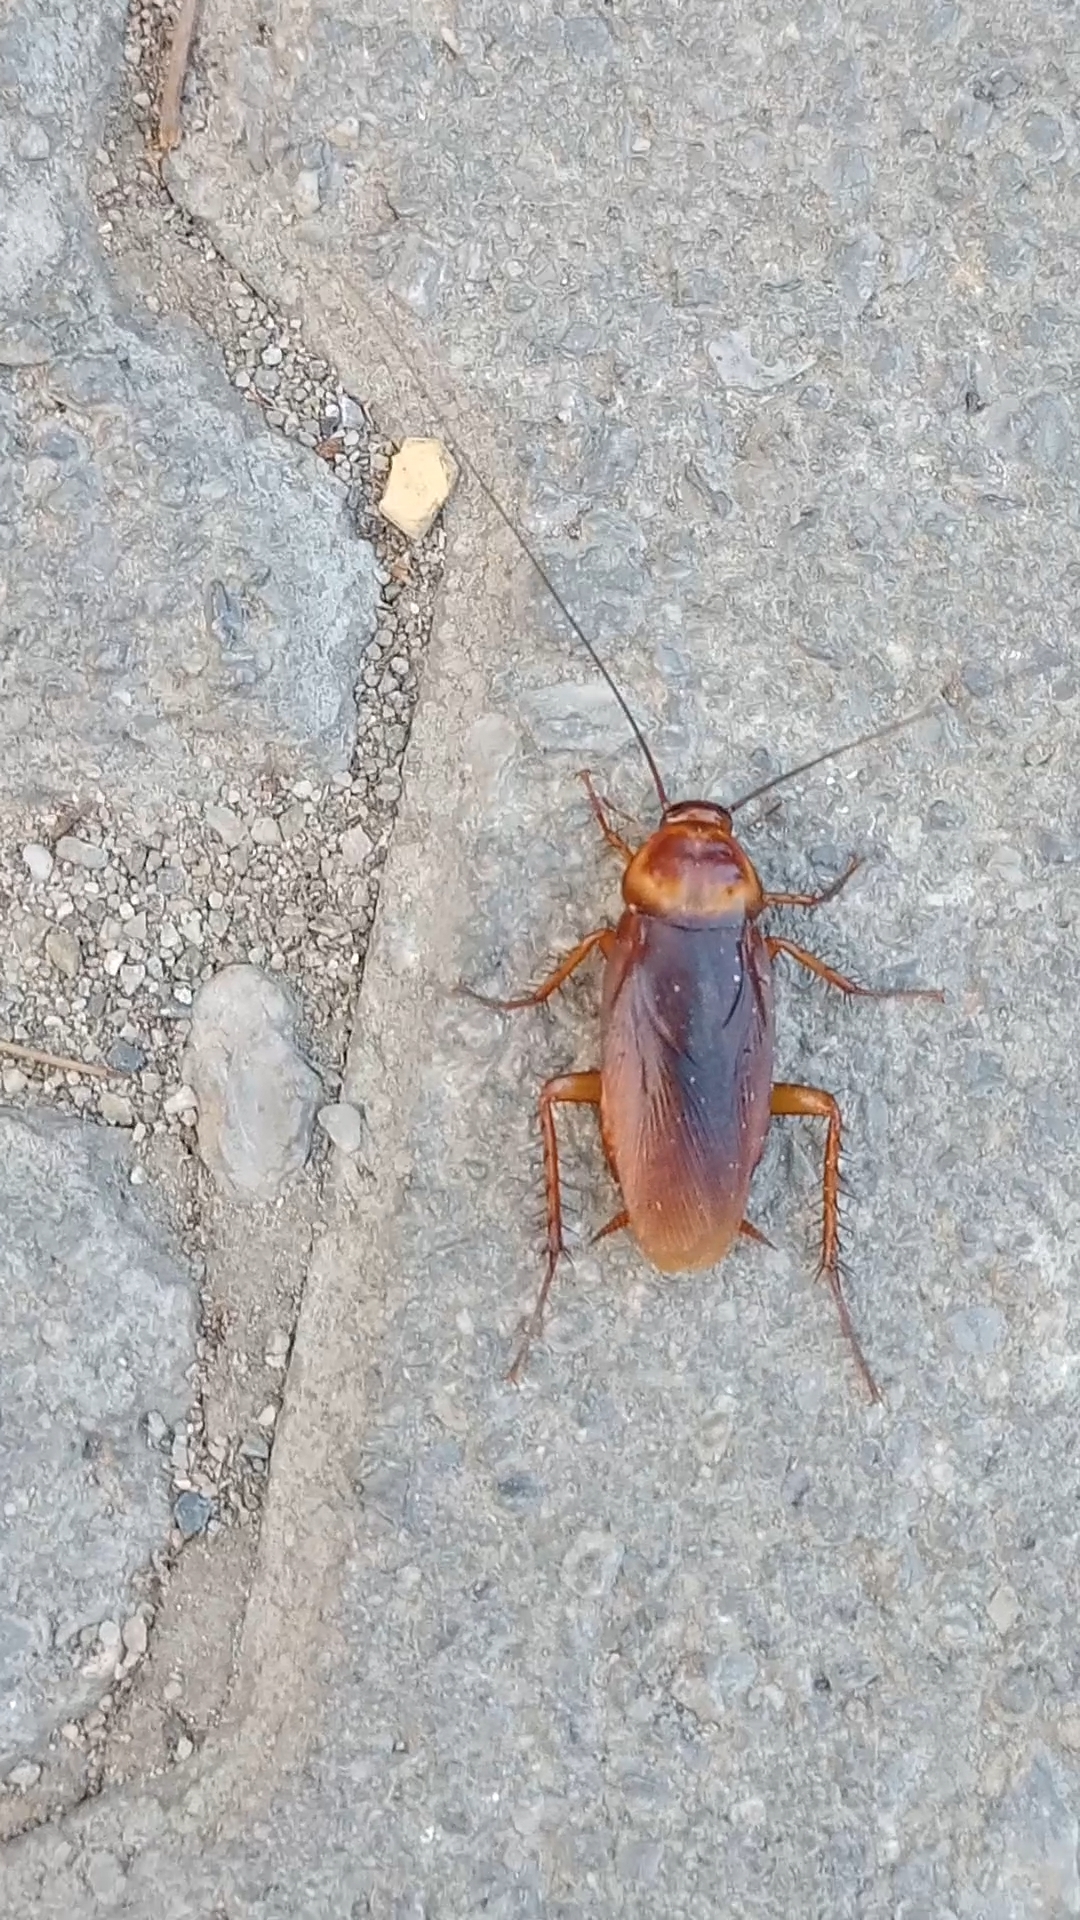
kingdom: Animalia
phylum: Arthropoda
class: Insecta
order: Blattodea
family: Blattidae
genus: Periplaneta
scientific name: Periplaneta americana
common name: American cockroach
